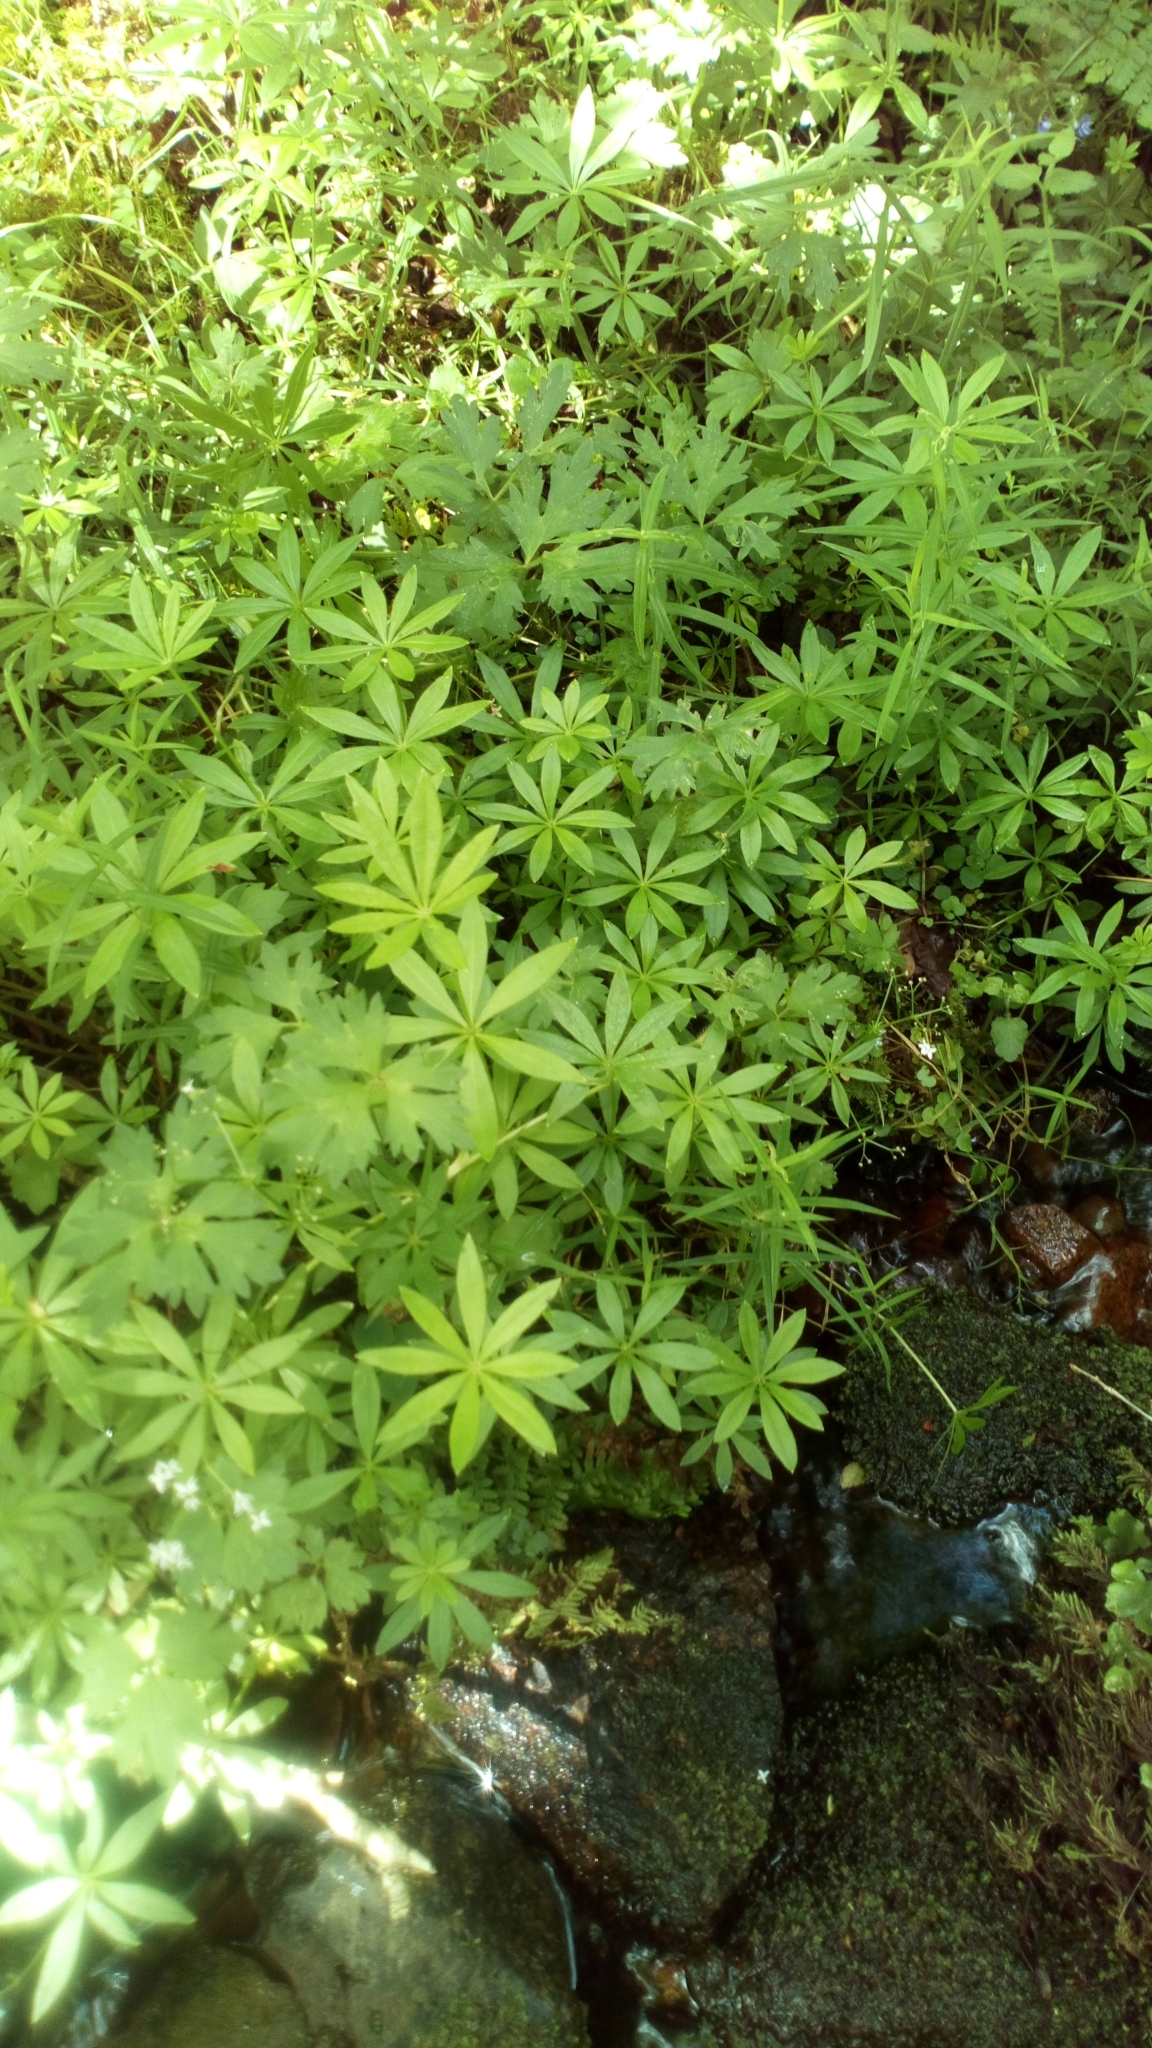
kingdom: Plantae
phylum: Tracheophyta
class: Magnoliopsida
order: Gentianales
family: Rubiaceae
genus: Galium
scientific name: Galium odoratum
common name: Sweet woodruff
